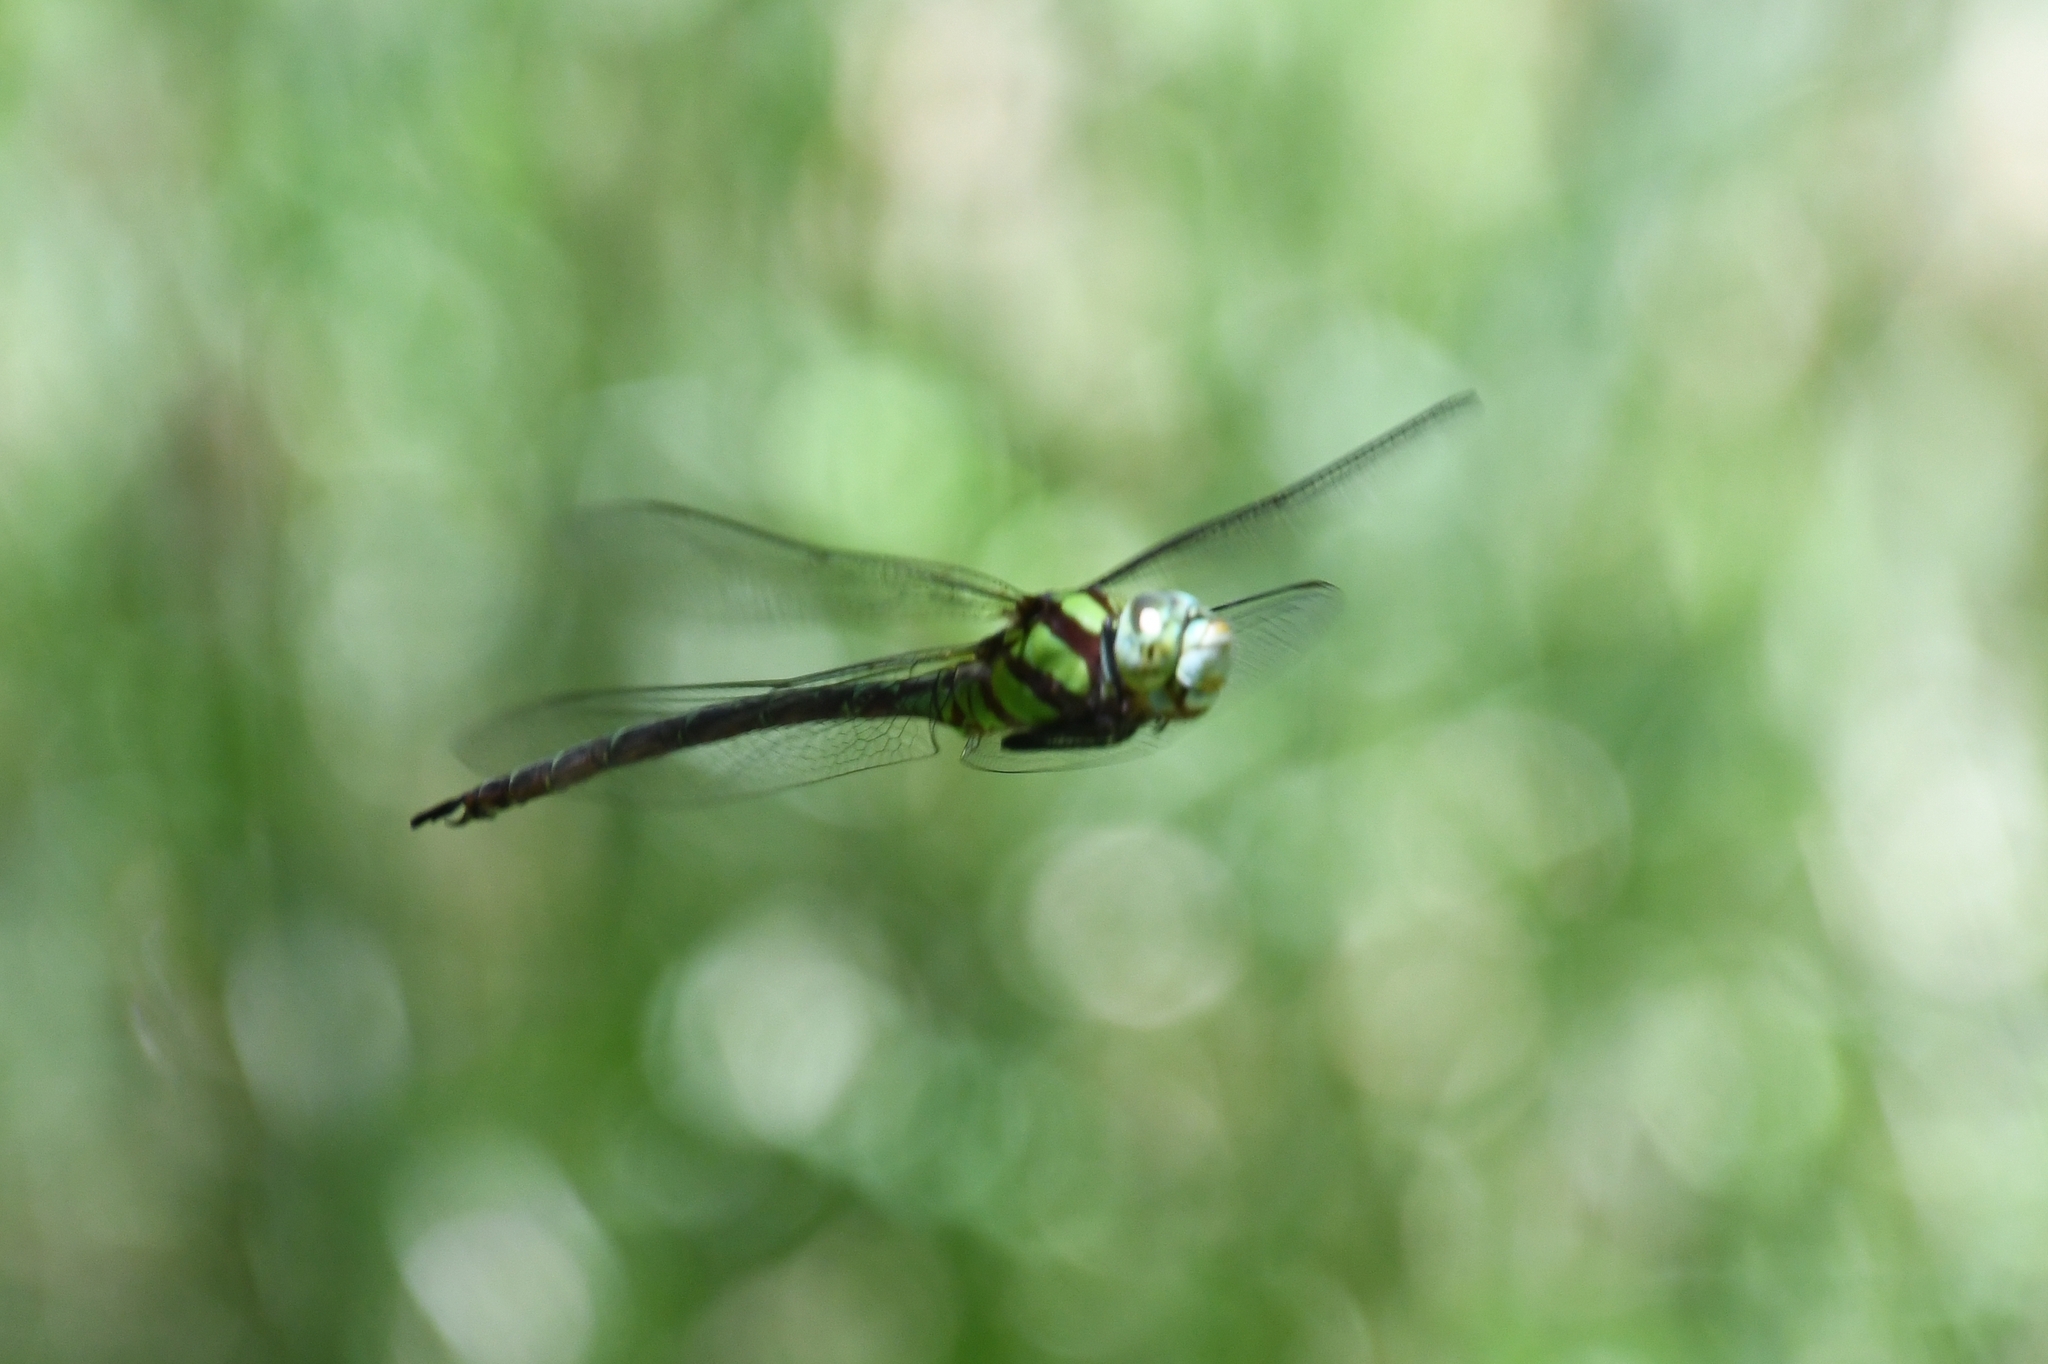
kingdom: Animalia
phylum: Arthropoda
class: Insecta
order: Odonata
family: Aeshnidae
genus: Remartinia
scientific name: Remartinia luteipennis
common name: Malachite darner
